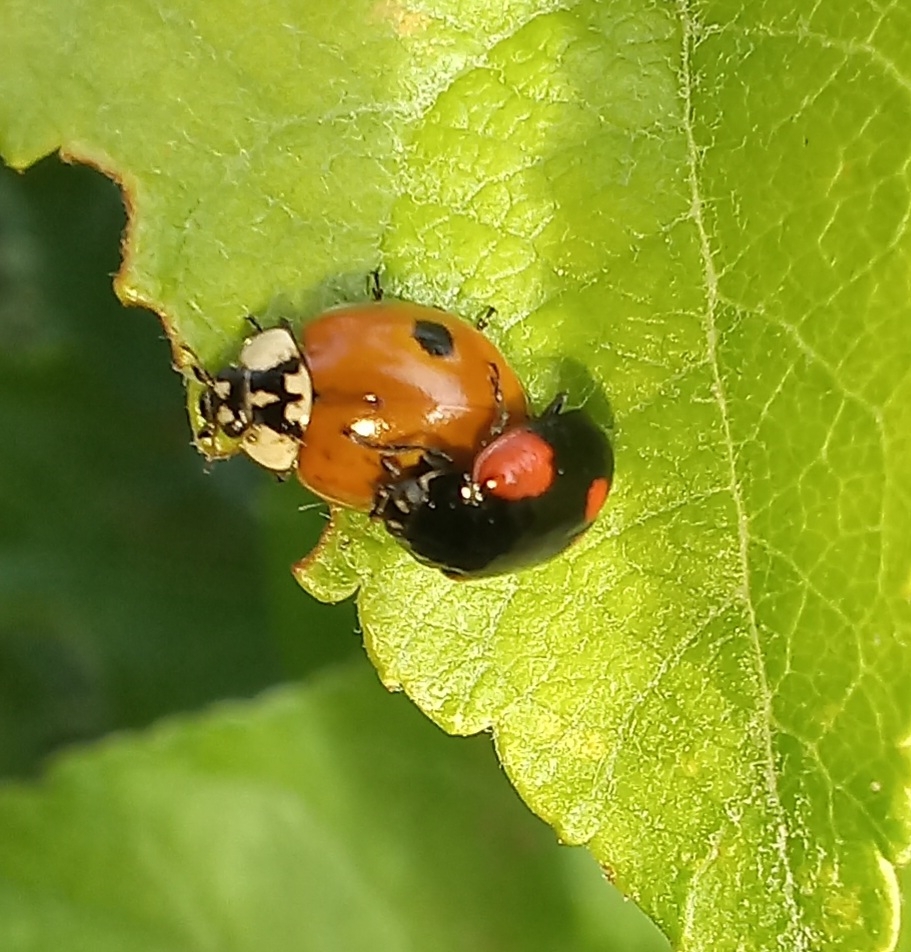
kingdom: Animalia
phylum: Arthropoda
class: Insecta
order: Coleoptera
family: Coccinellidae
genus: Adalia
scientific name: Adalia bipunctata
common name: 2-spot ladybird
